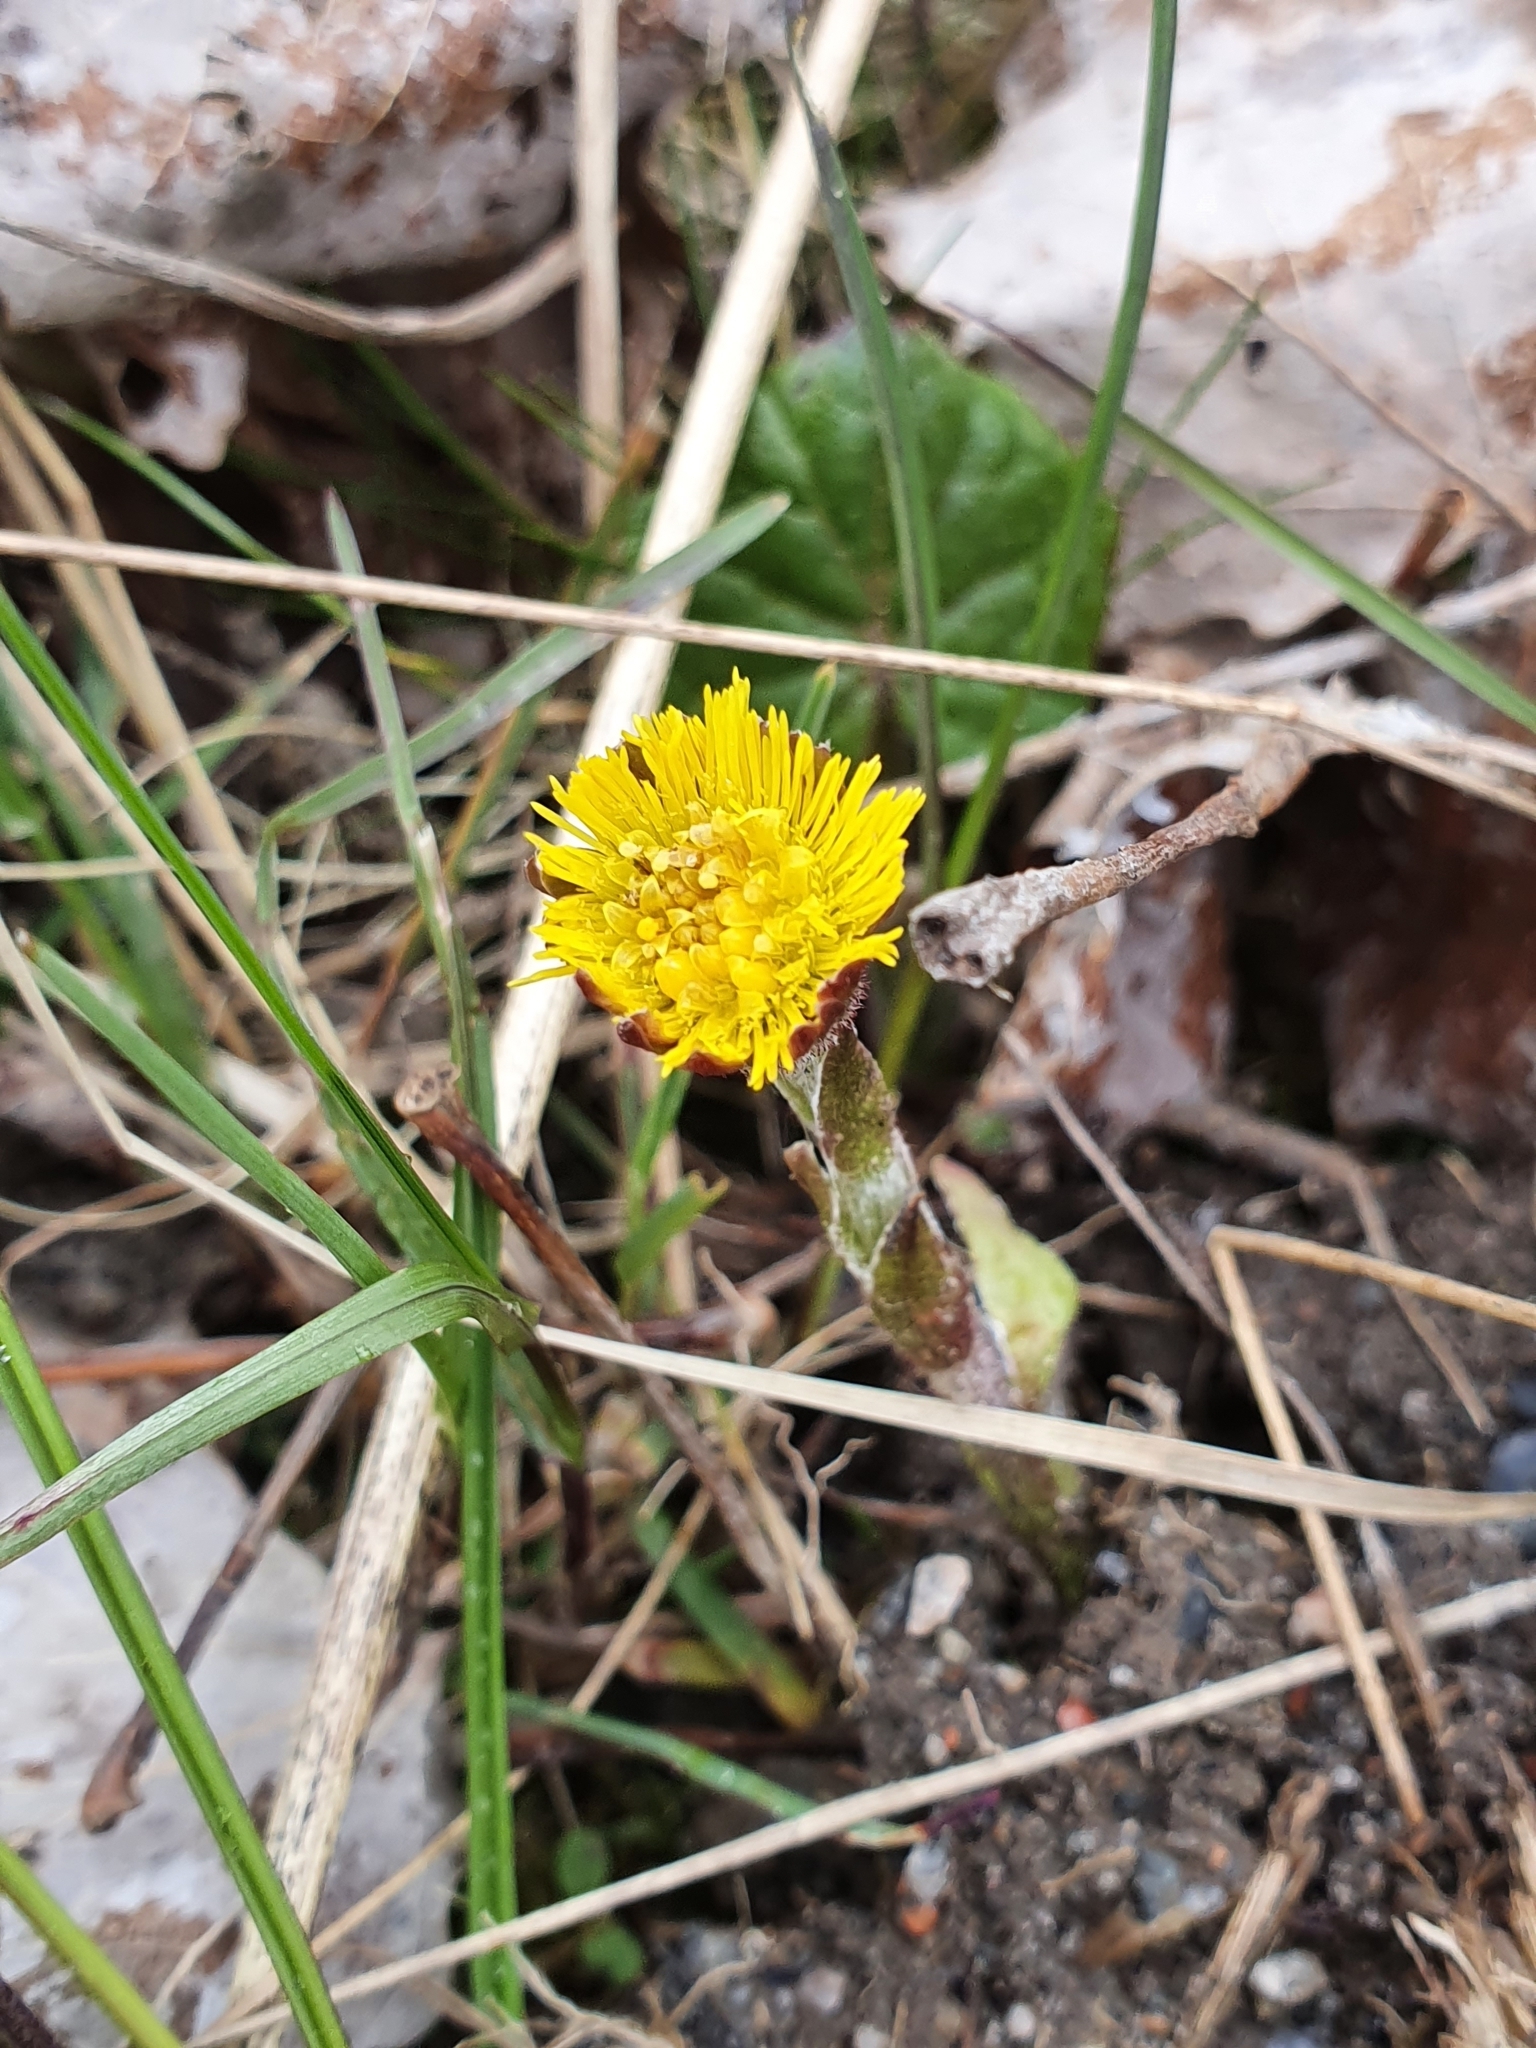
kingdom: Plantae
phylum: Tracheophyta
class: Magnoliopsida
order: Asterales
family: Asteraceae
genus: Tussilago
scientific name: Tussilago farfara
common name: Coltsfoot
